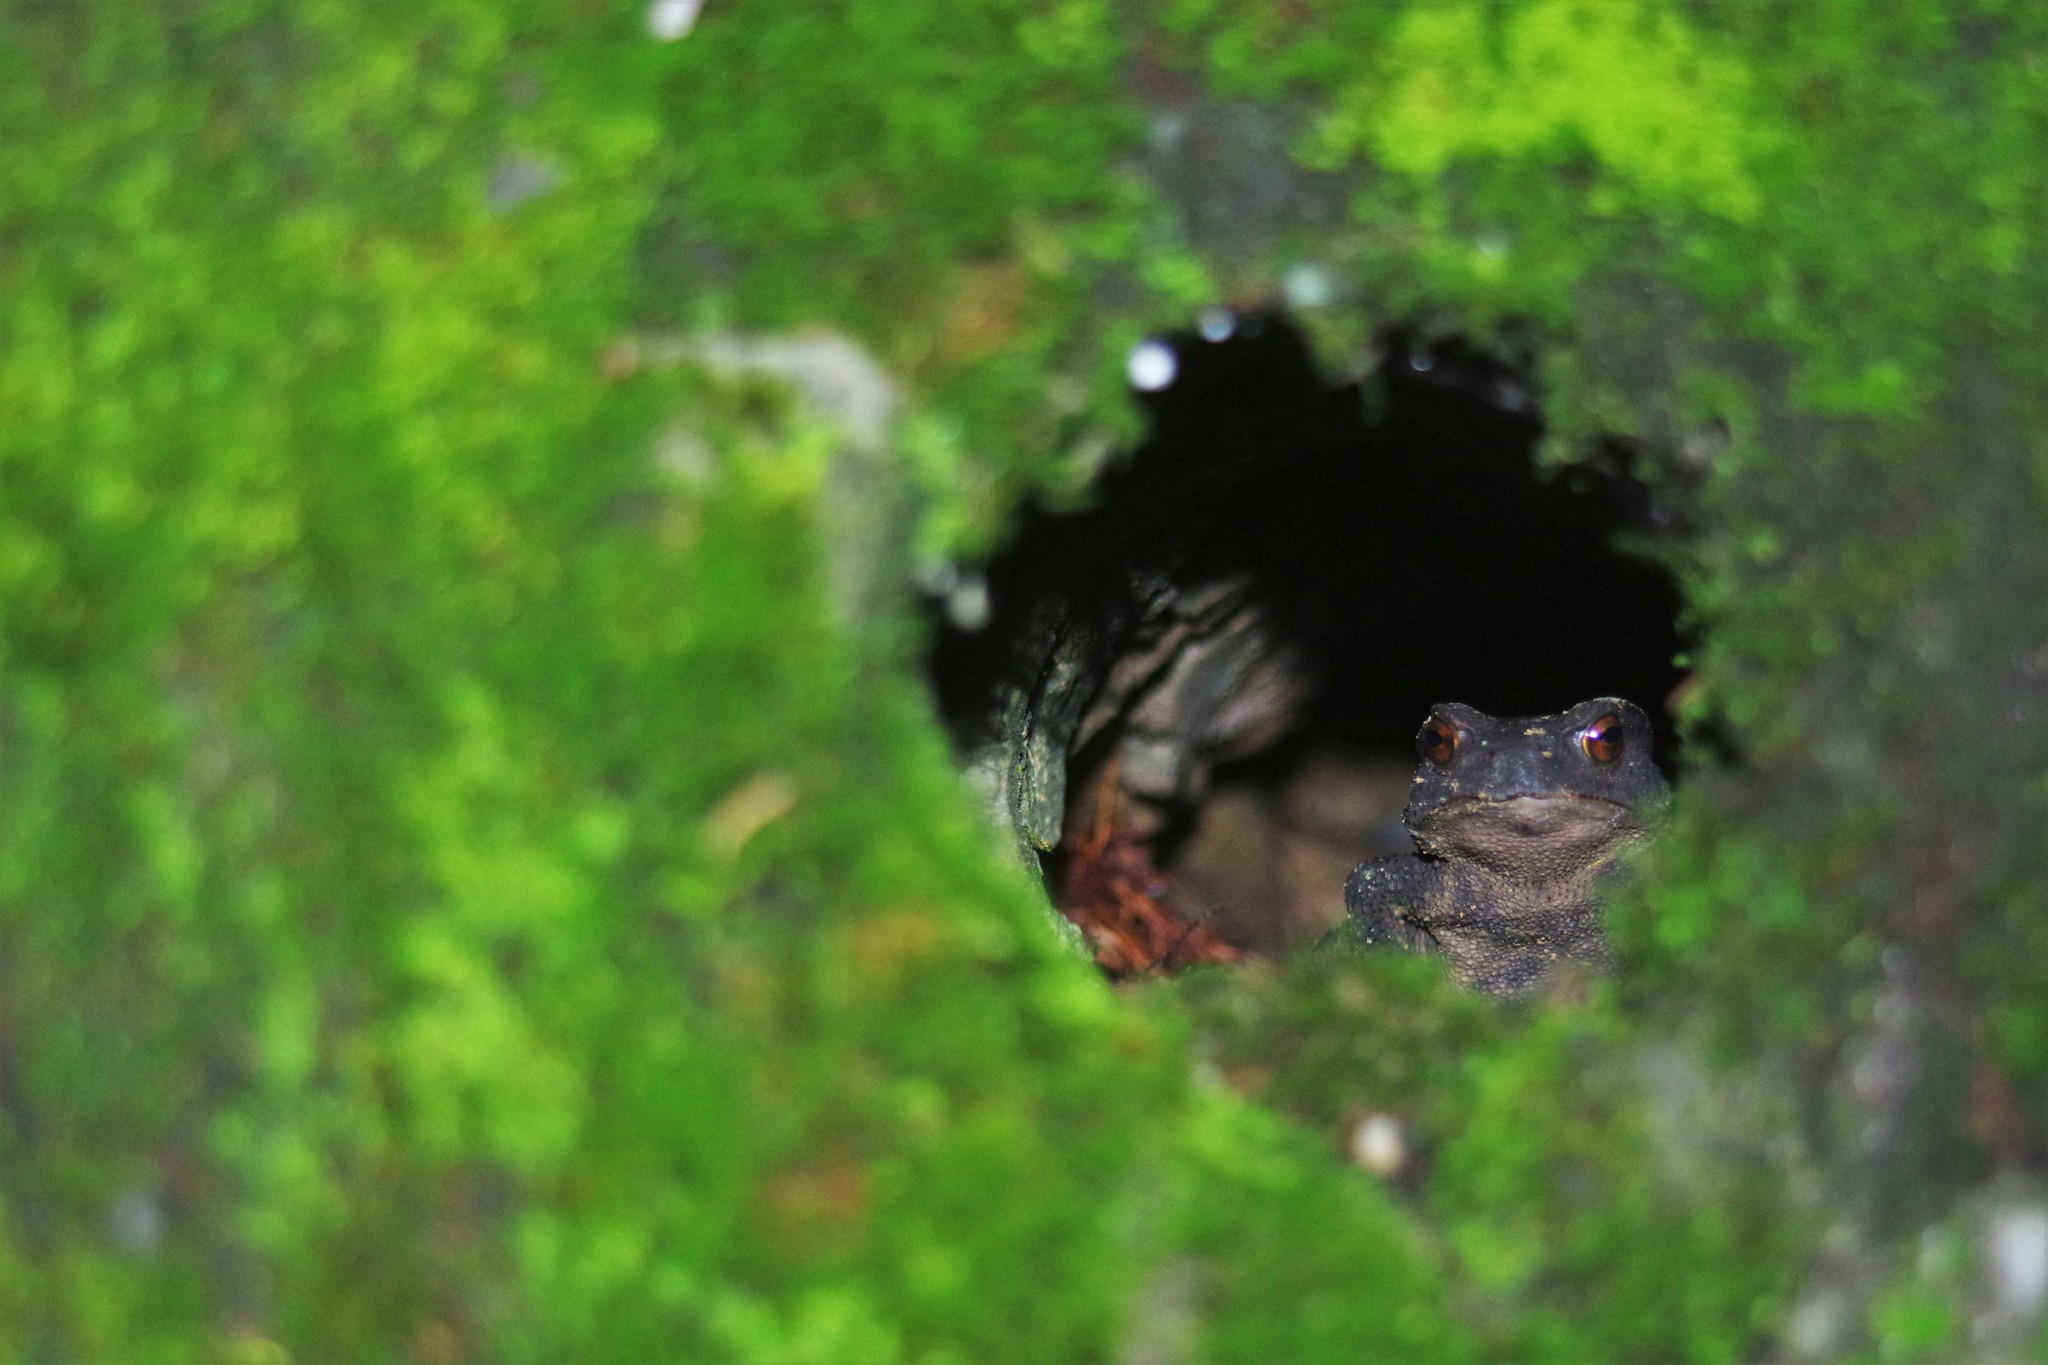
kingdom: Animalia
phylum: Chordata
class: Amphibia
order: Anura
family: Bufonidae
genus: Bufo
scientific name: Bufo bankorensis
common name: Bankor toad
